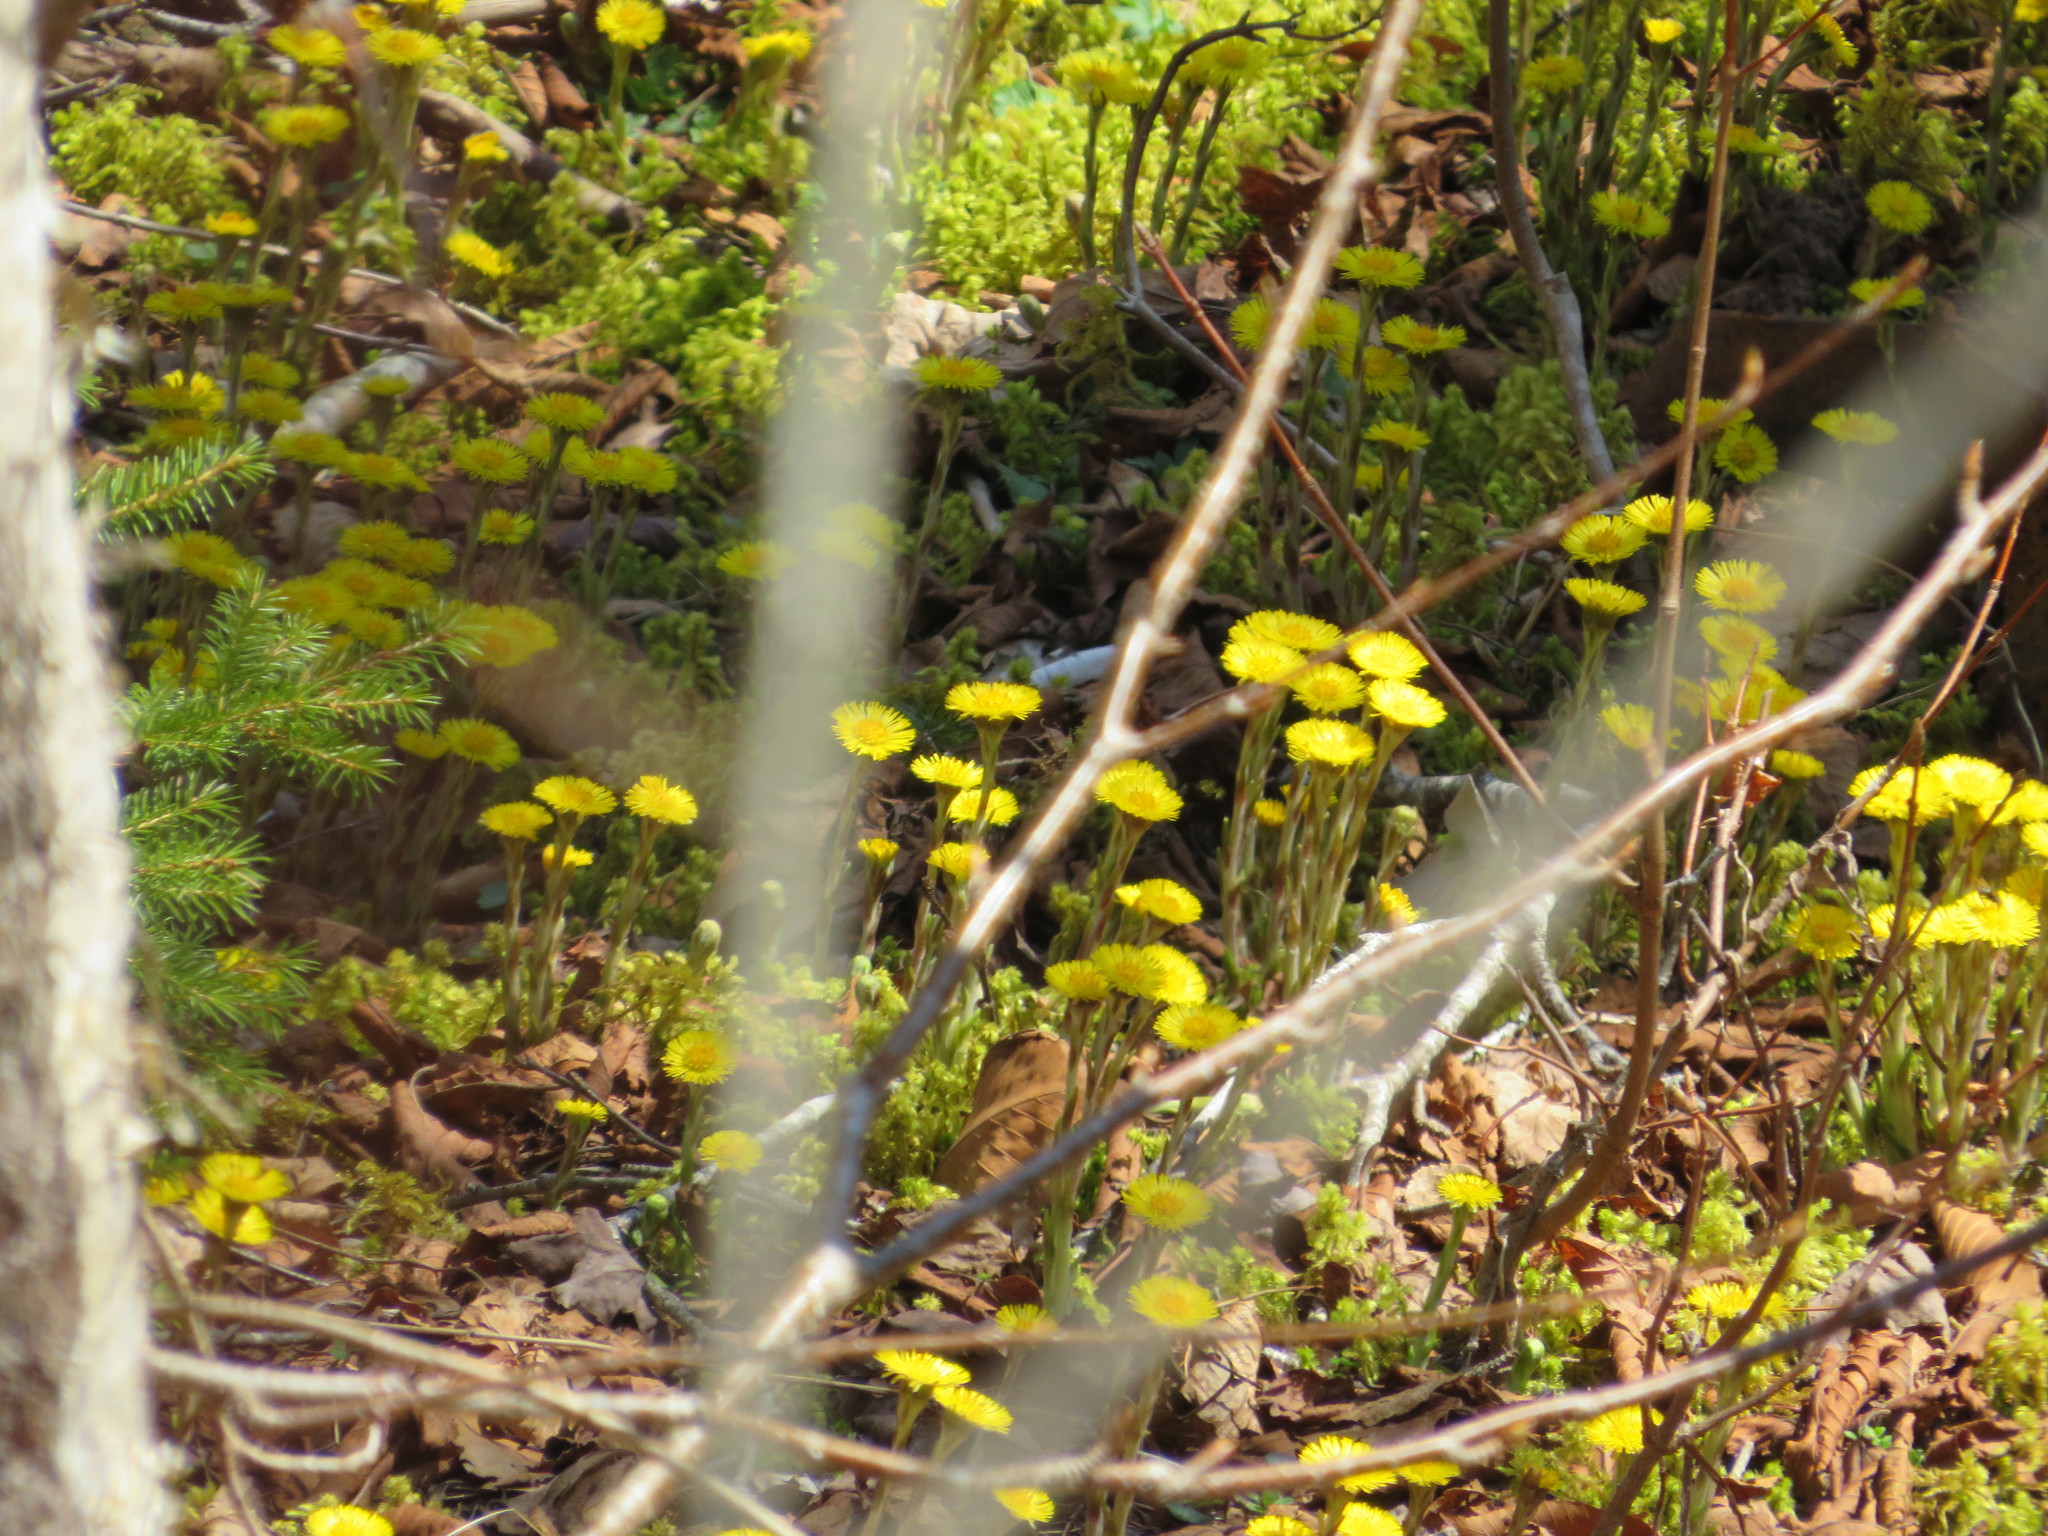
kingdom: Plantae
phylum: Tracheophyta
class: Magnoliopsida
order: Asterales
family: Asteraceae
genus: Tussilago
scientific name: Tussilago farfara
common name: Coltsfoot
